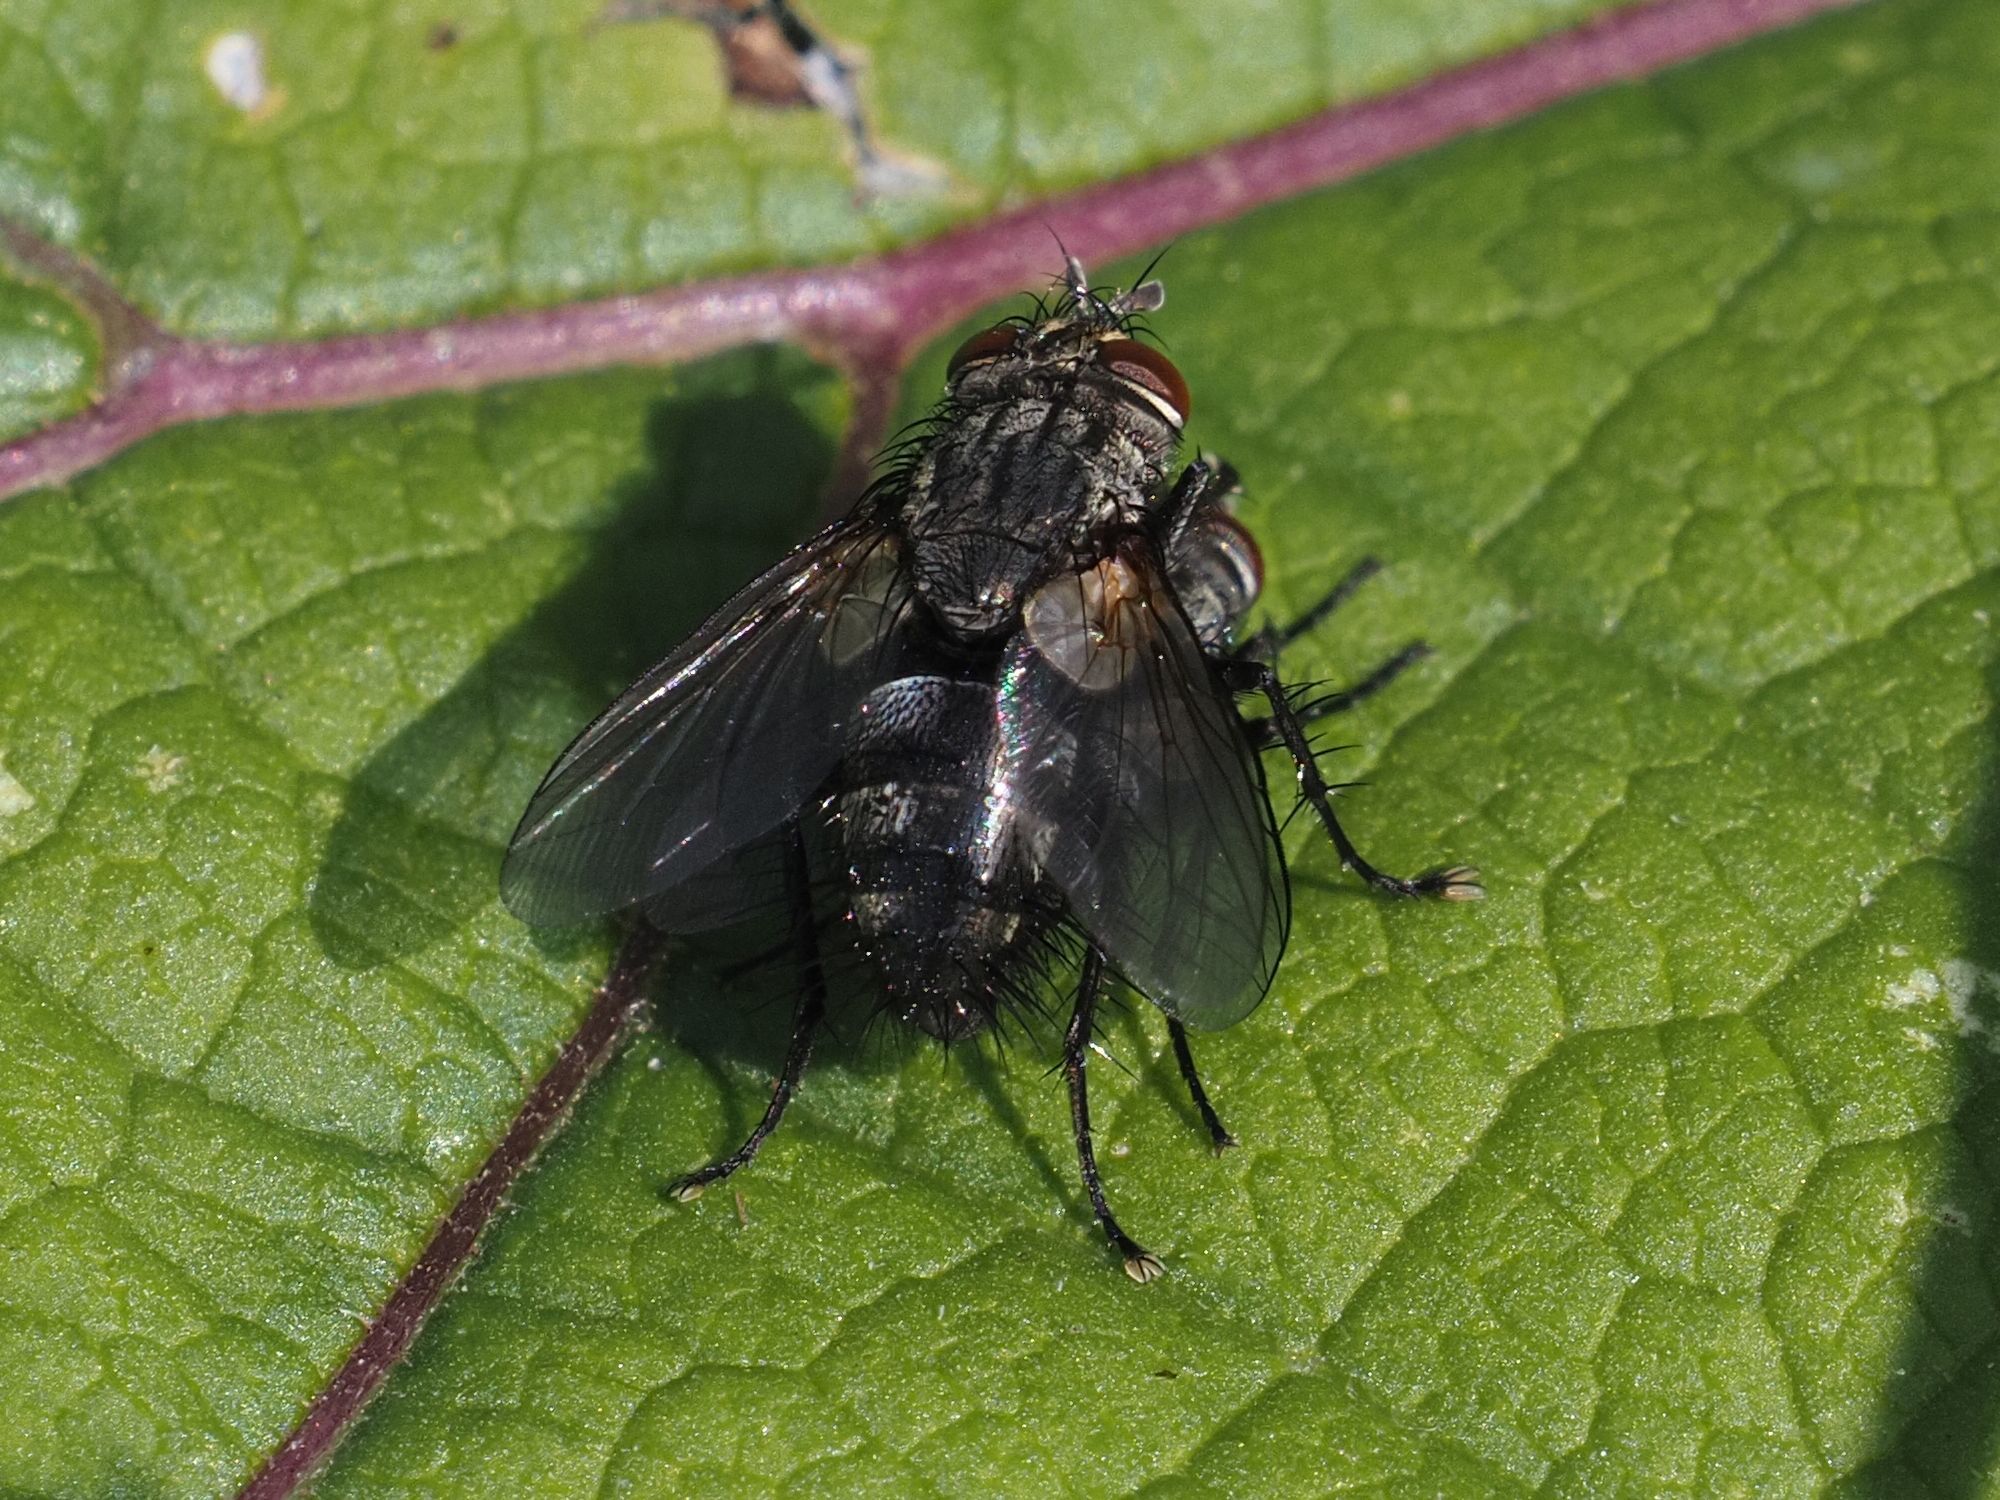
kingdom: Animalia
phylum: Arthropoda
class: Insecta
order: Diptera
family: Tachinidae
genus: Voria
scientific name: Voria ruralis
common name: Parasitic fly
